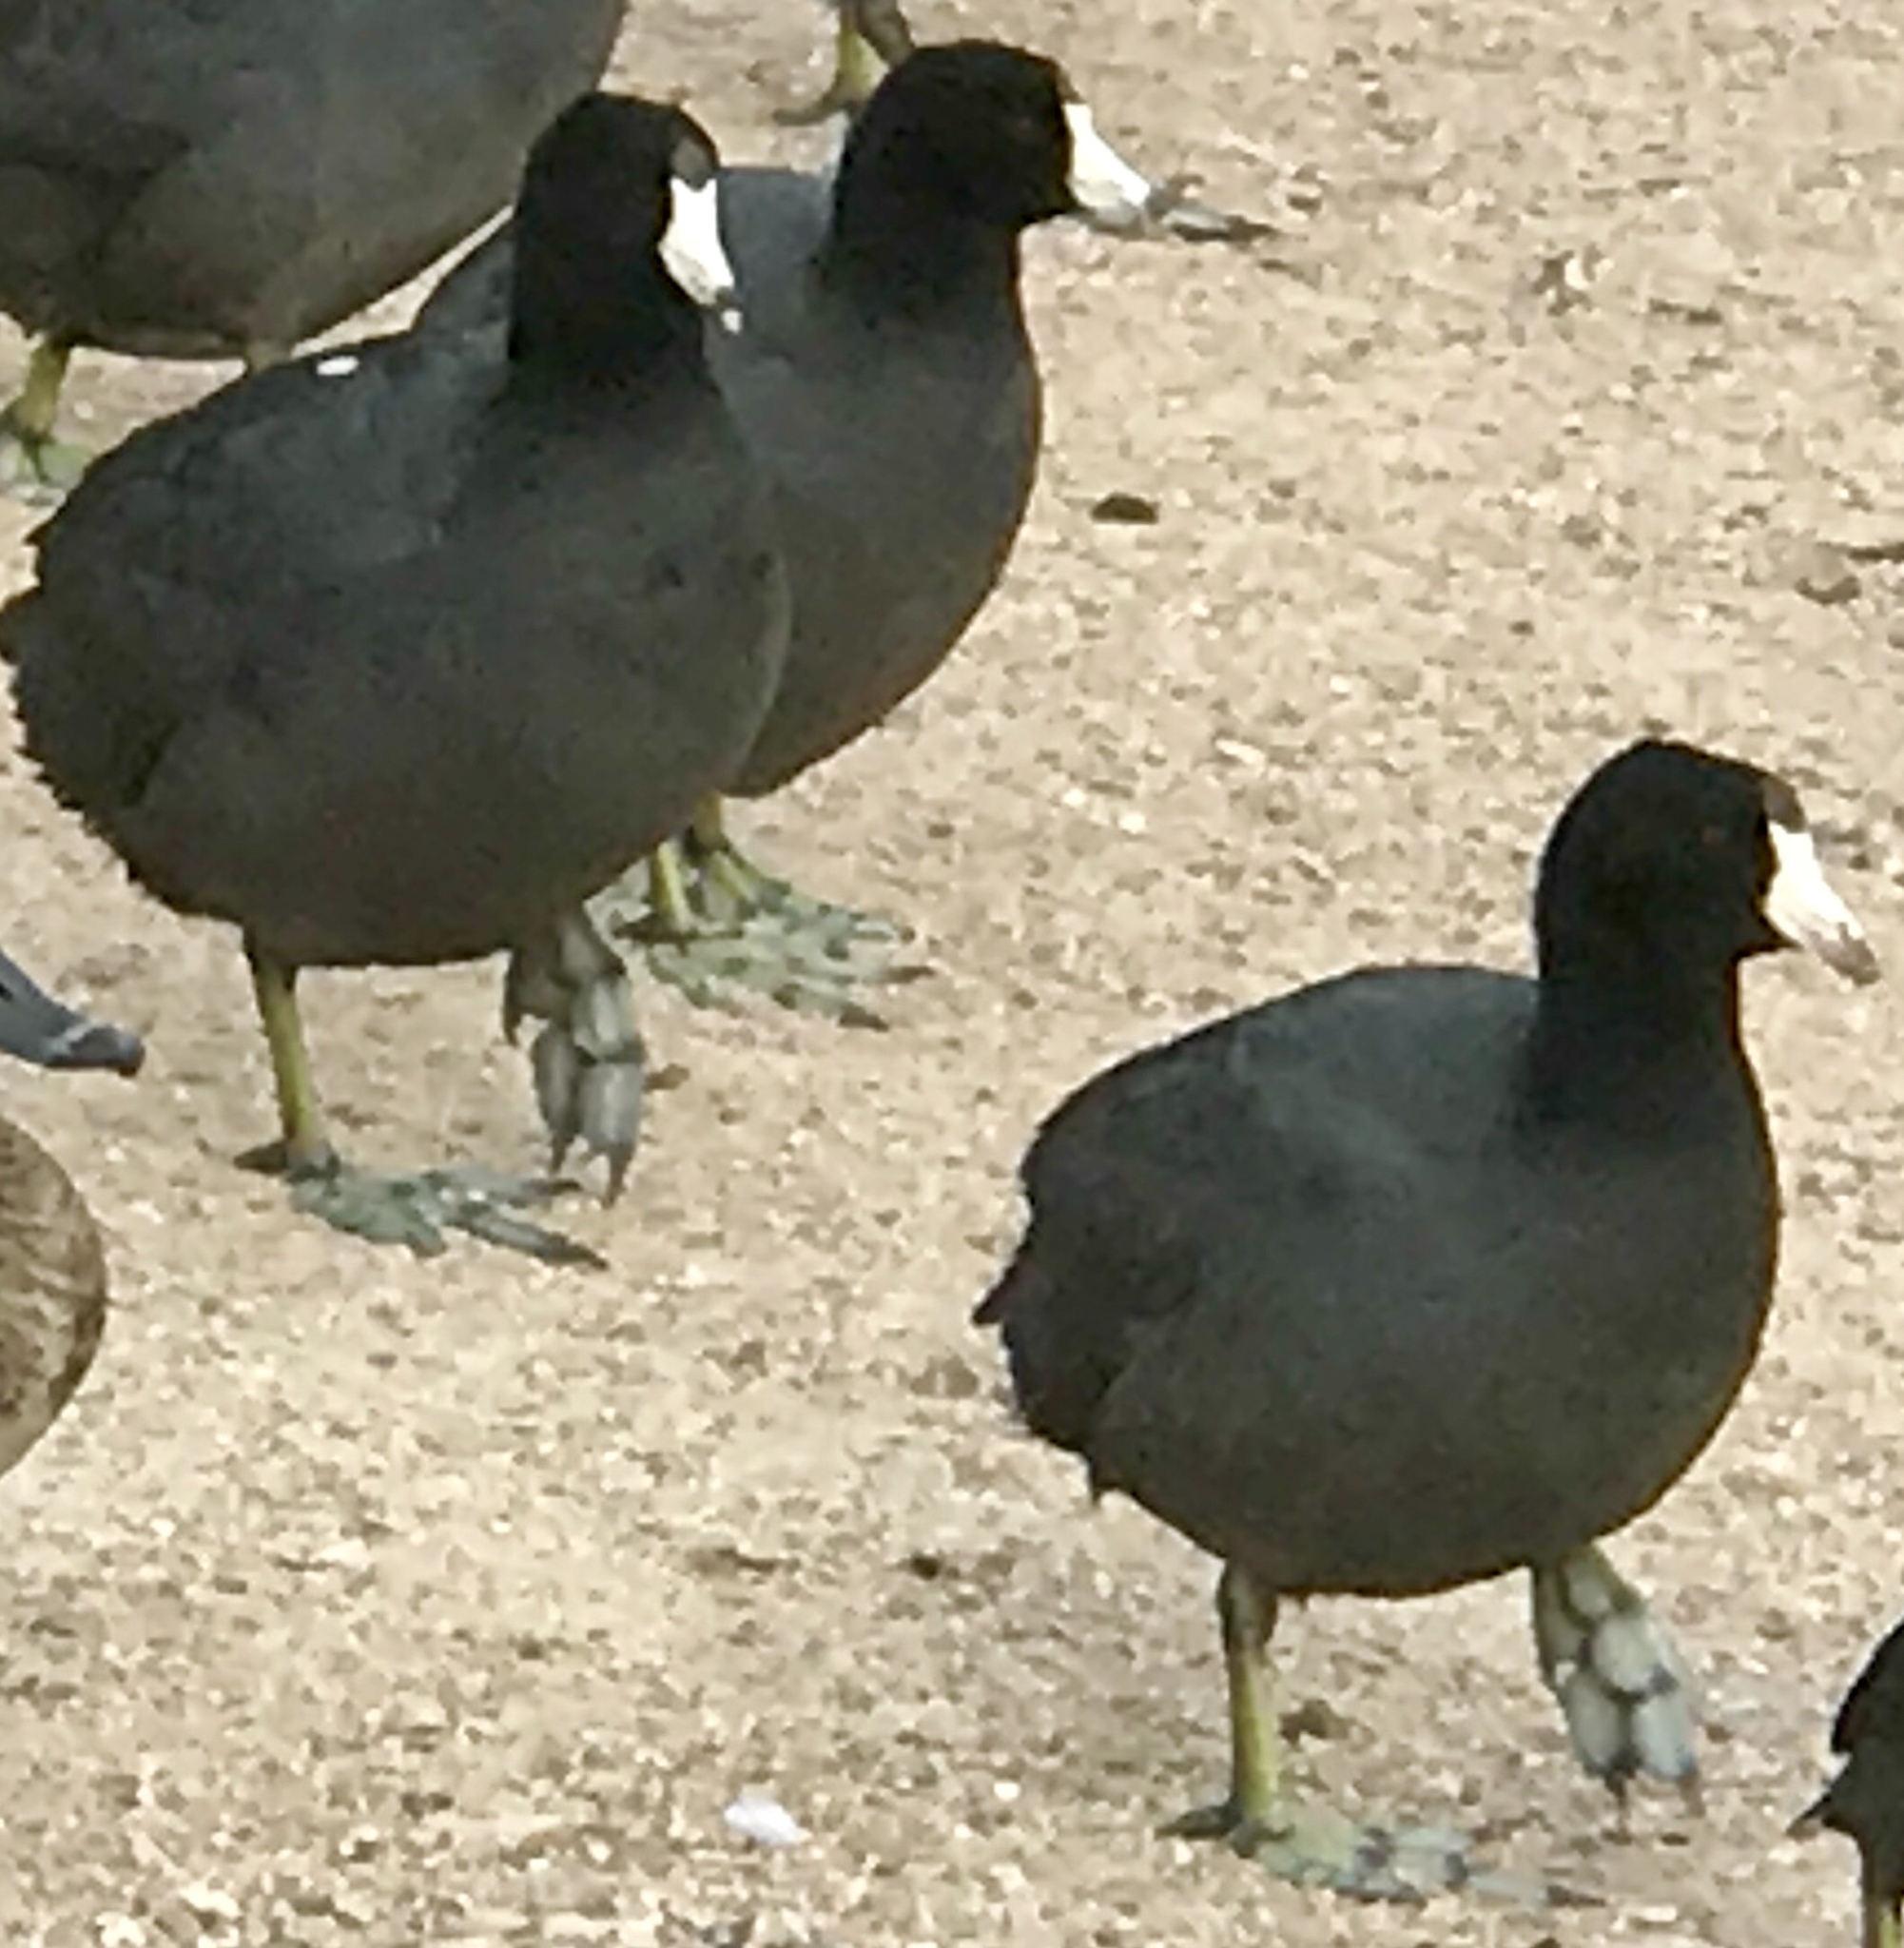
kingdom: Animalia
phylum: Chordata
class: Aves
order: Gruiformes
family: Rallidae
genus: Fulica
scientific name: Fulica americana
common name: American coot
